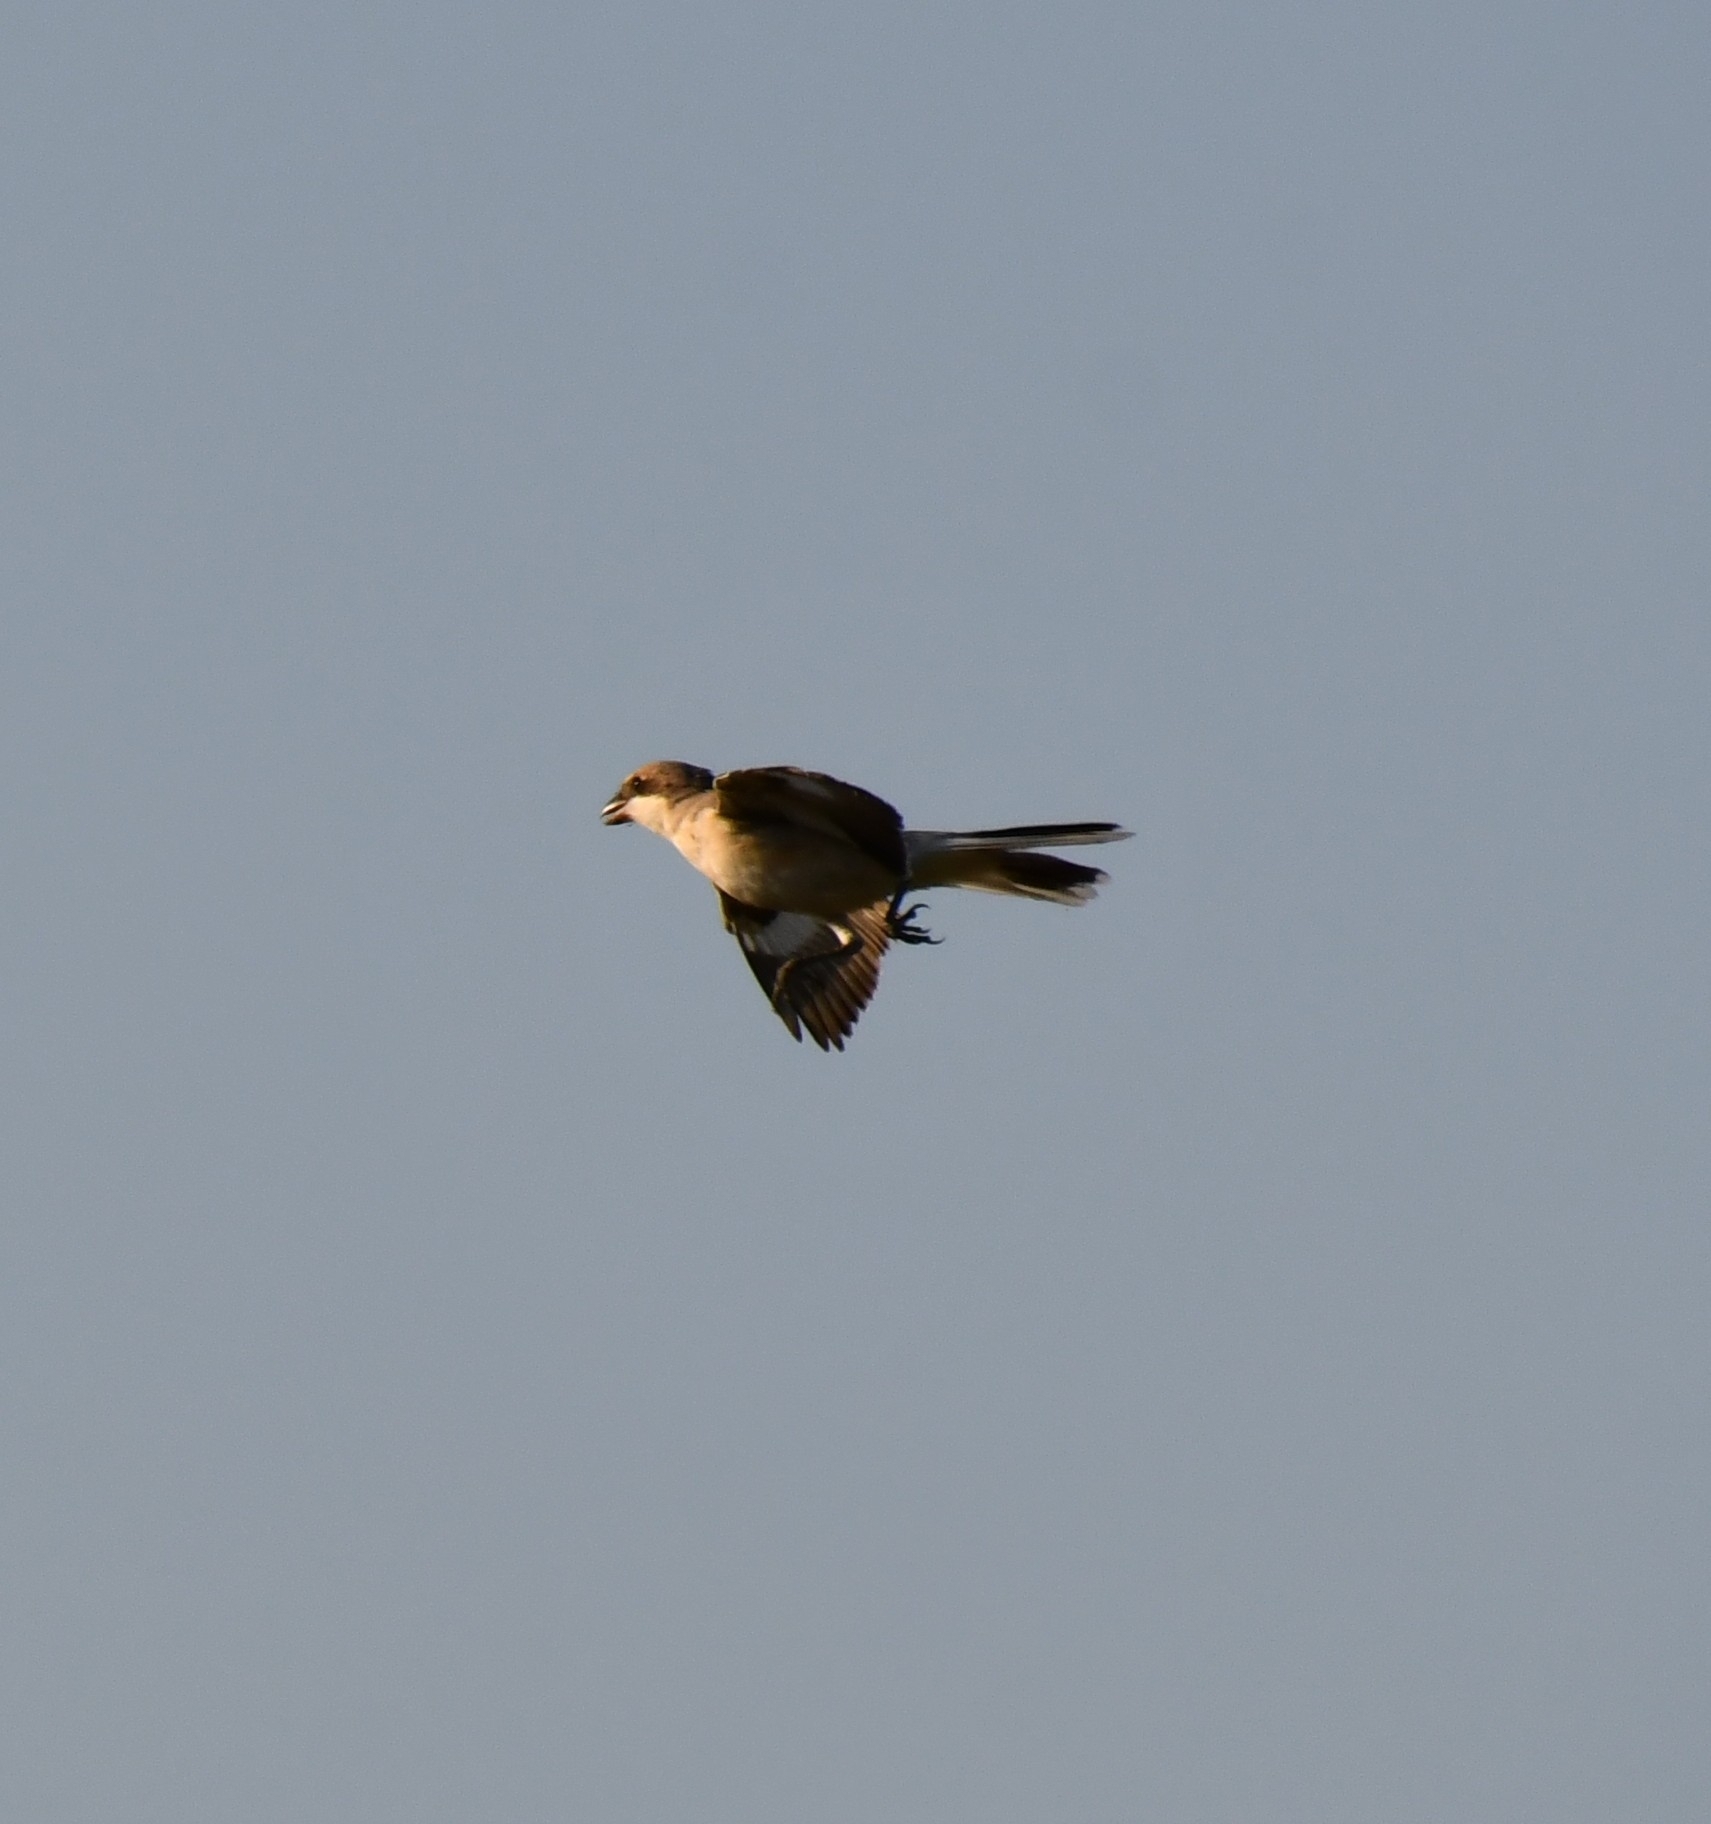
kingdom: Animalia
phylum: Chordata
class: Aves
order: Passeriformes
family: Laniidae
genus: Lanius
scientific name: Lanius minor
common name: Lesser grey shrike
